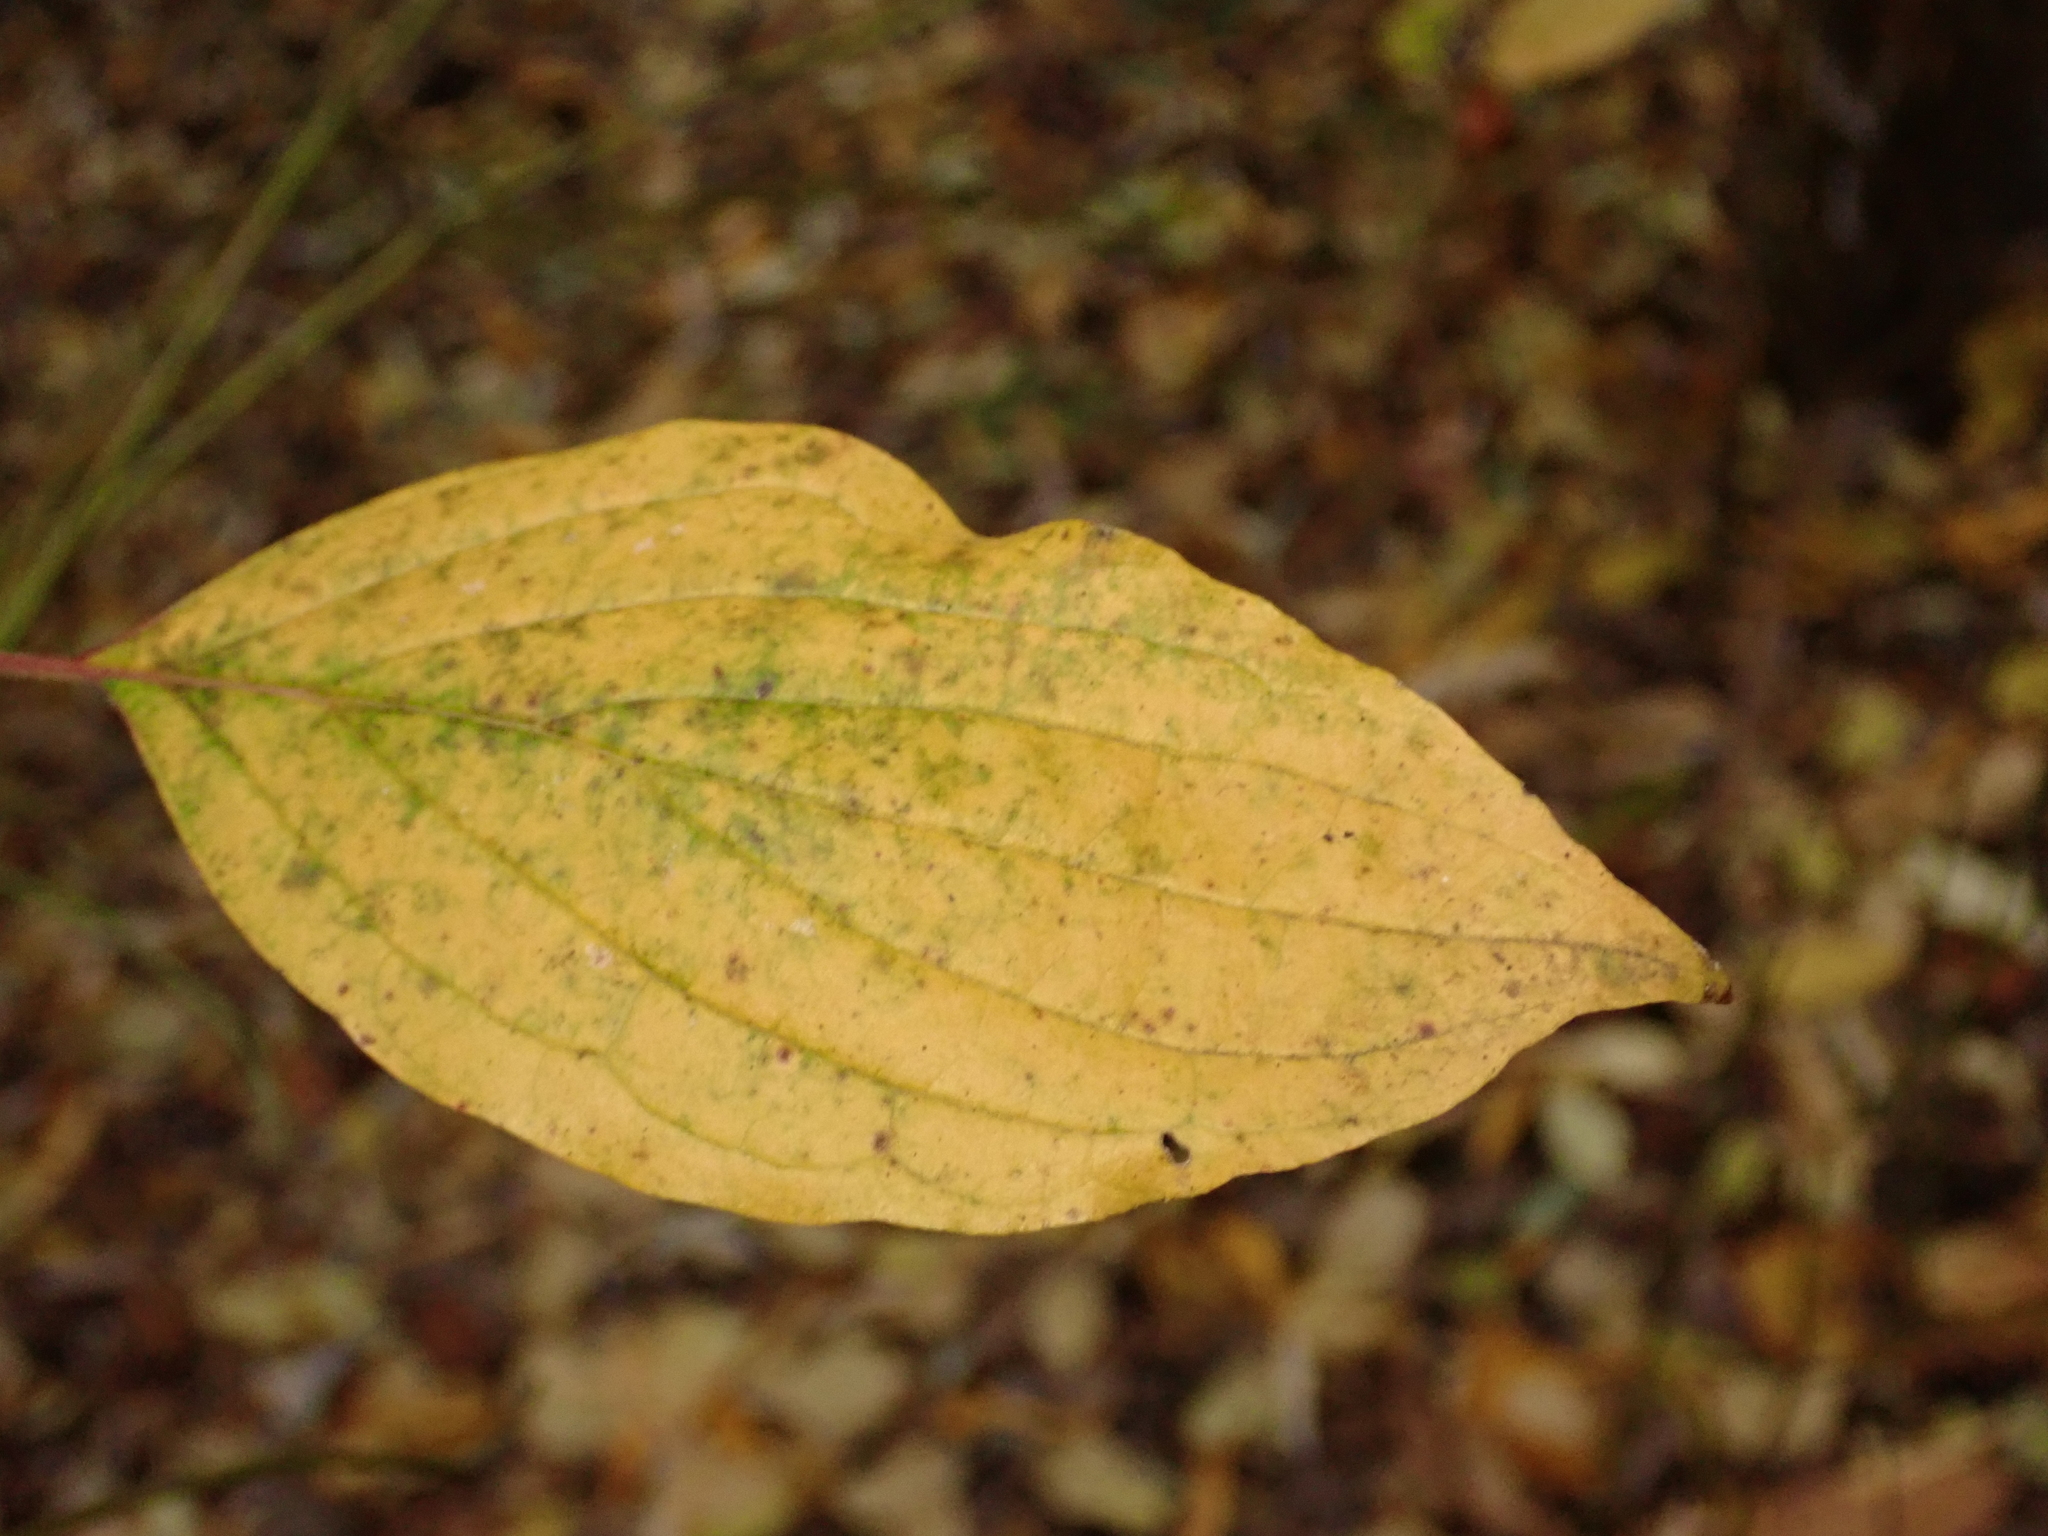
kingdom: Plantae
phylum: Tracheophyta
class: Magnoliopsida
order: Cornales
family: Cornaceae
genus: Cornus
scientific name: Cornus sanguinea
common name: Dogwood
